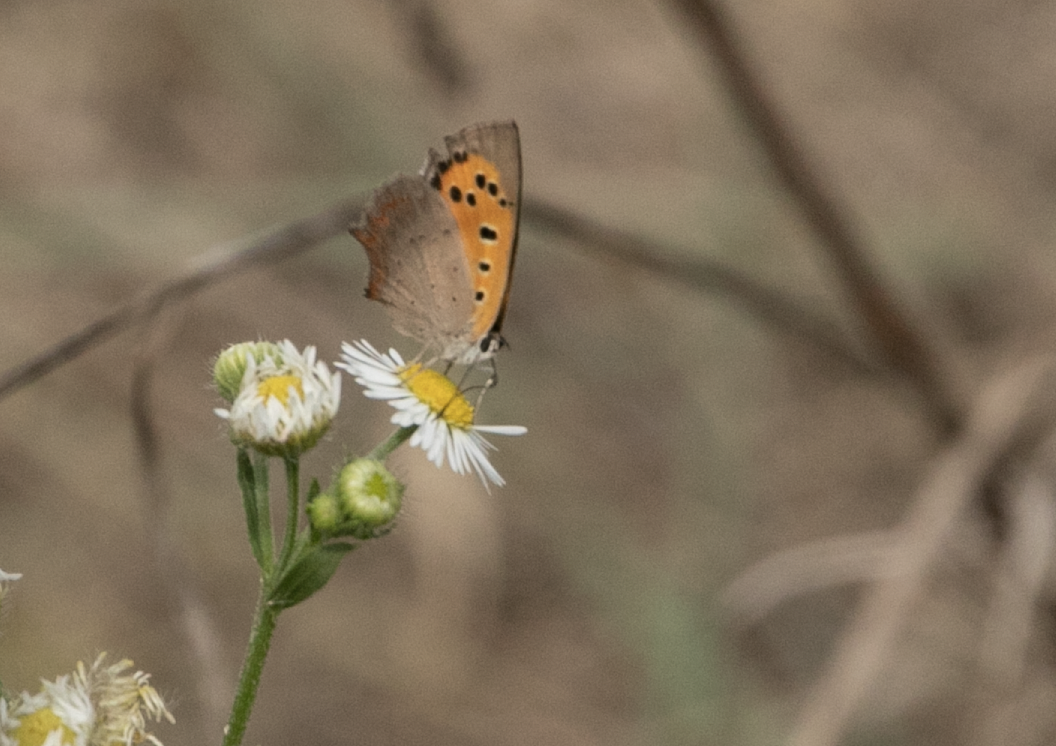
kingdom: Animalia
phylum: Arthropoda
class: Insecta
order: Lepidoptera
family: Lycaenidae
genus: Lycaena
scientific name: Lycaena phlaeas
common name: Small copper
